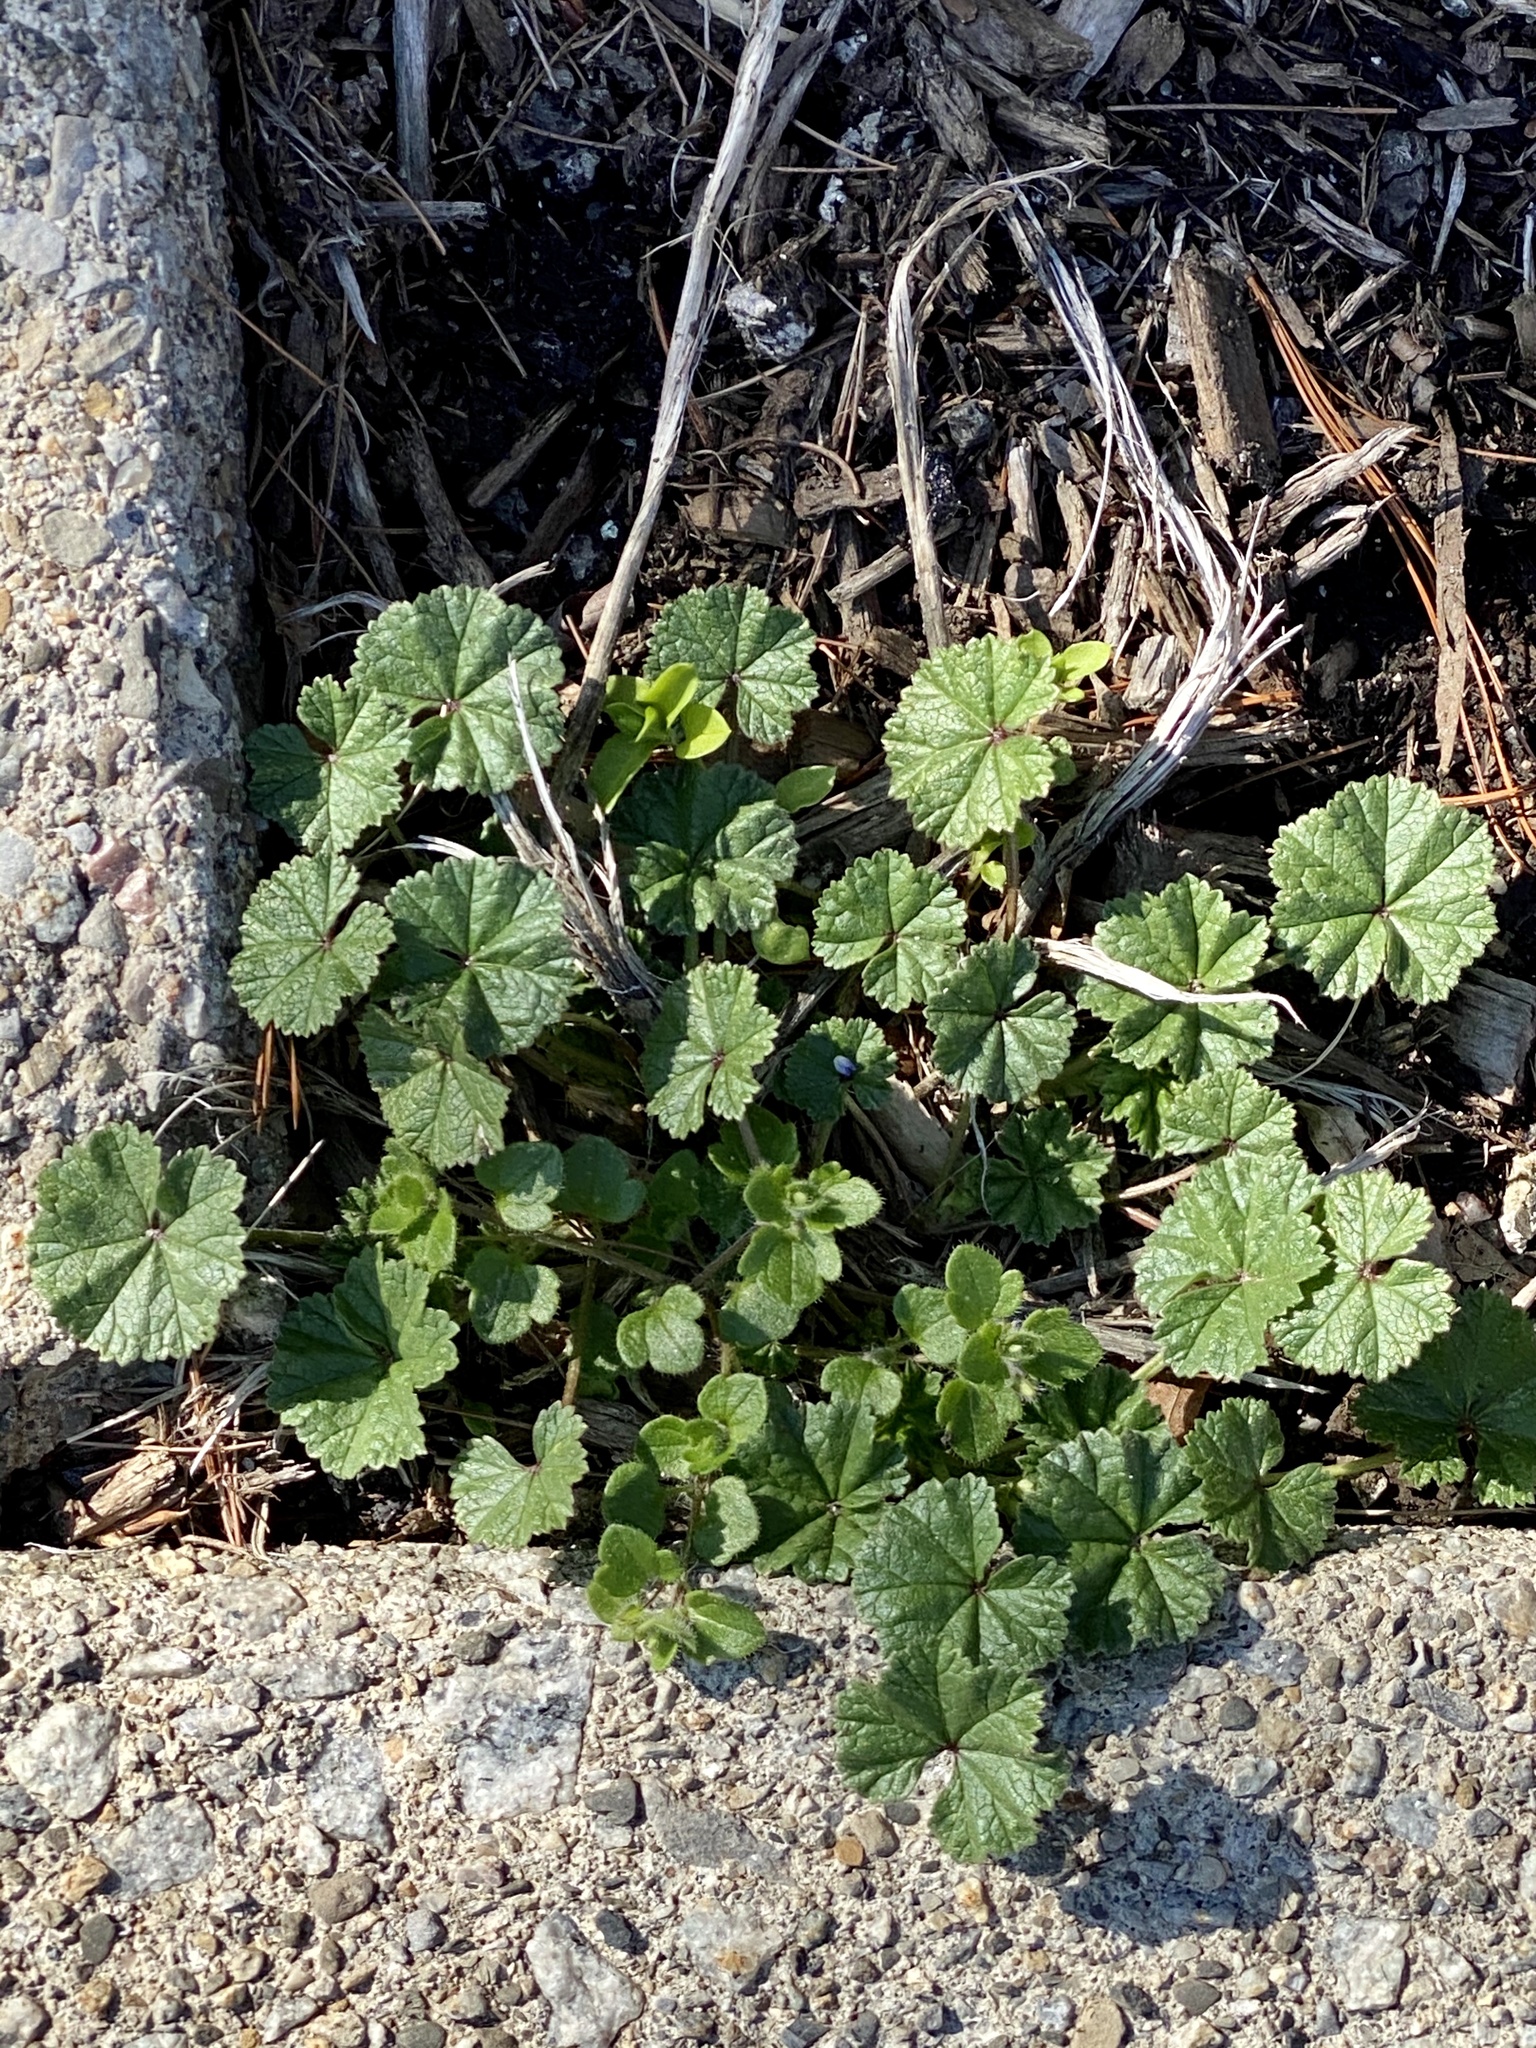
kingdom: Plantae
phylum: Tracheophyta
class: Magnoliopsida
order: Malvales
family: Malvaceae
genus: Malva
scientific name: Malva neglecta
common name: Common mallow
